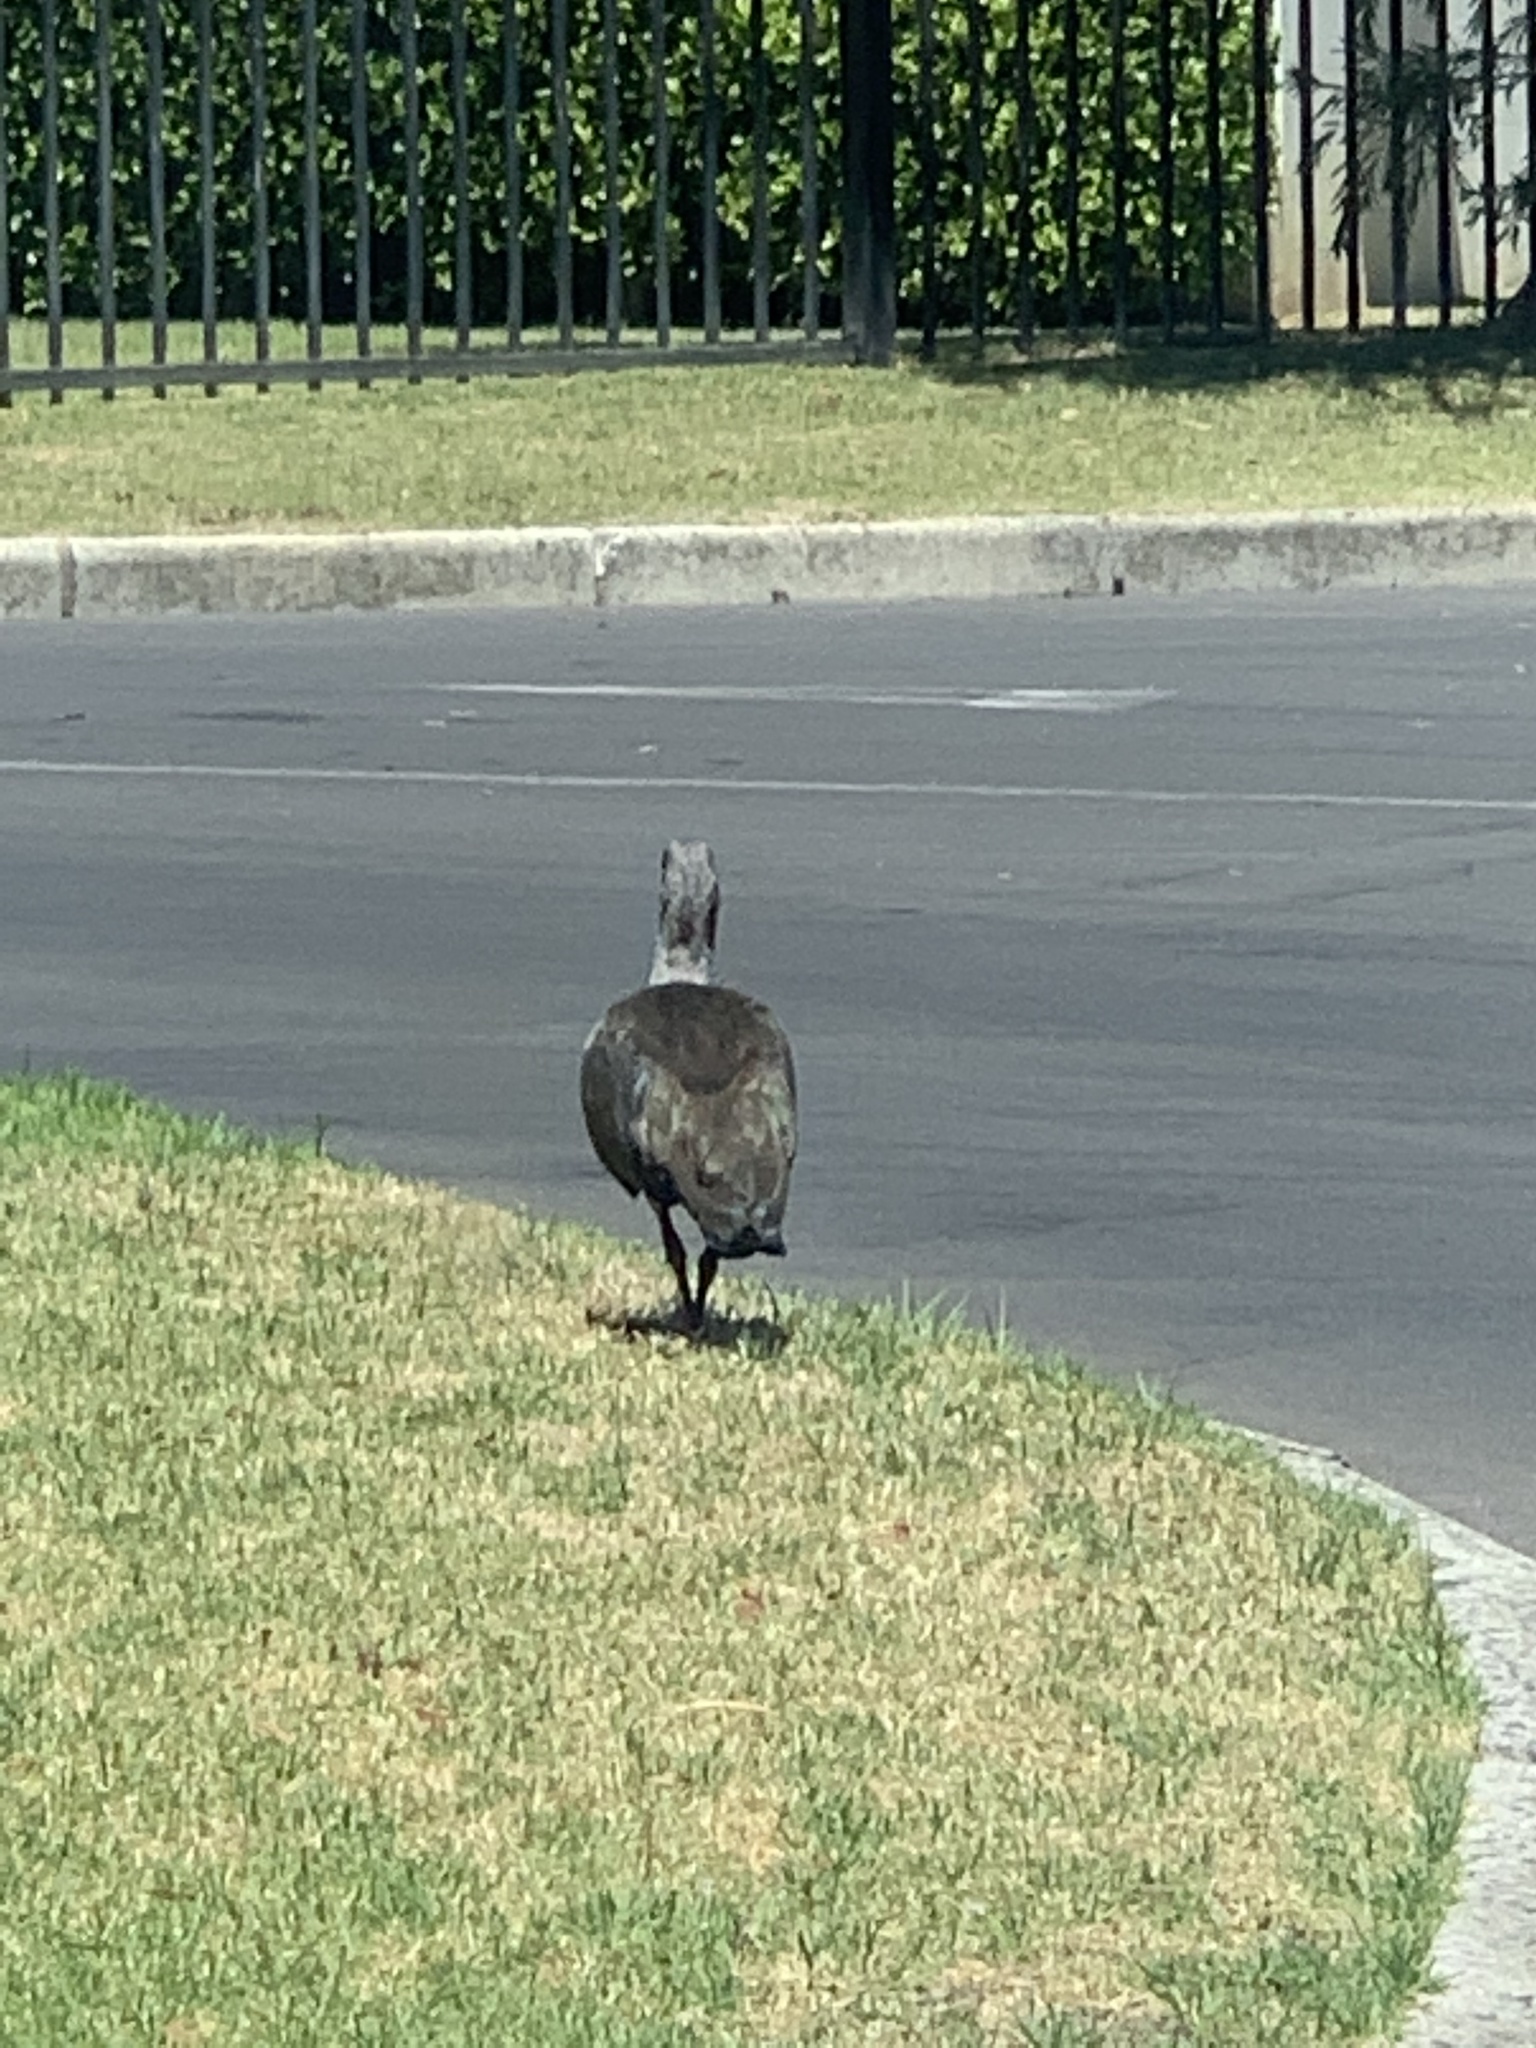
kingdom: Animalia
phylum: Chordata
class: Aves
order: Pelecaniformes
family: Threskiornithidae
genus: Bostrychia
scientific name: Bostrychia hagedash
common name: Hadada ibis
